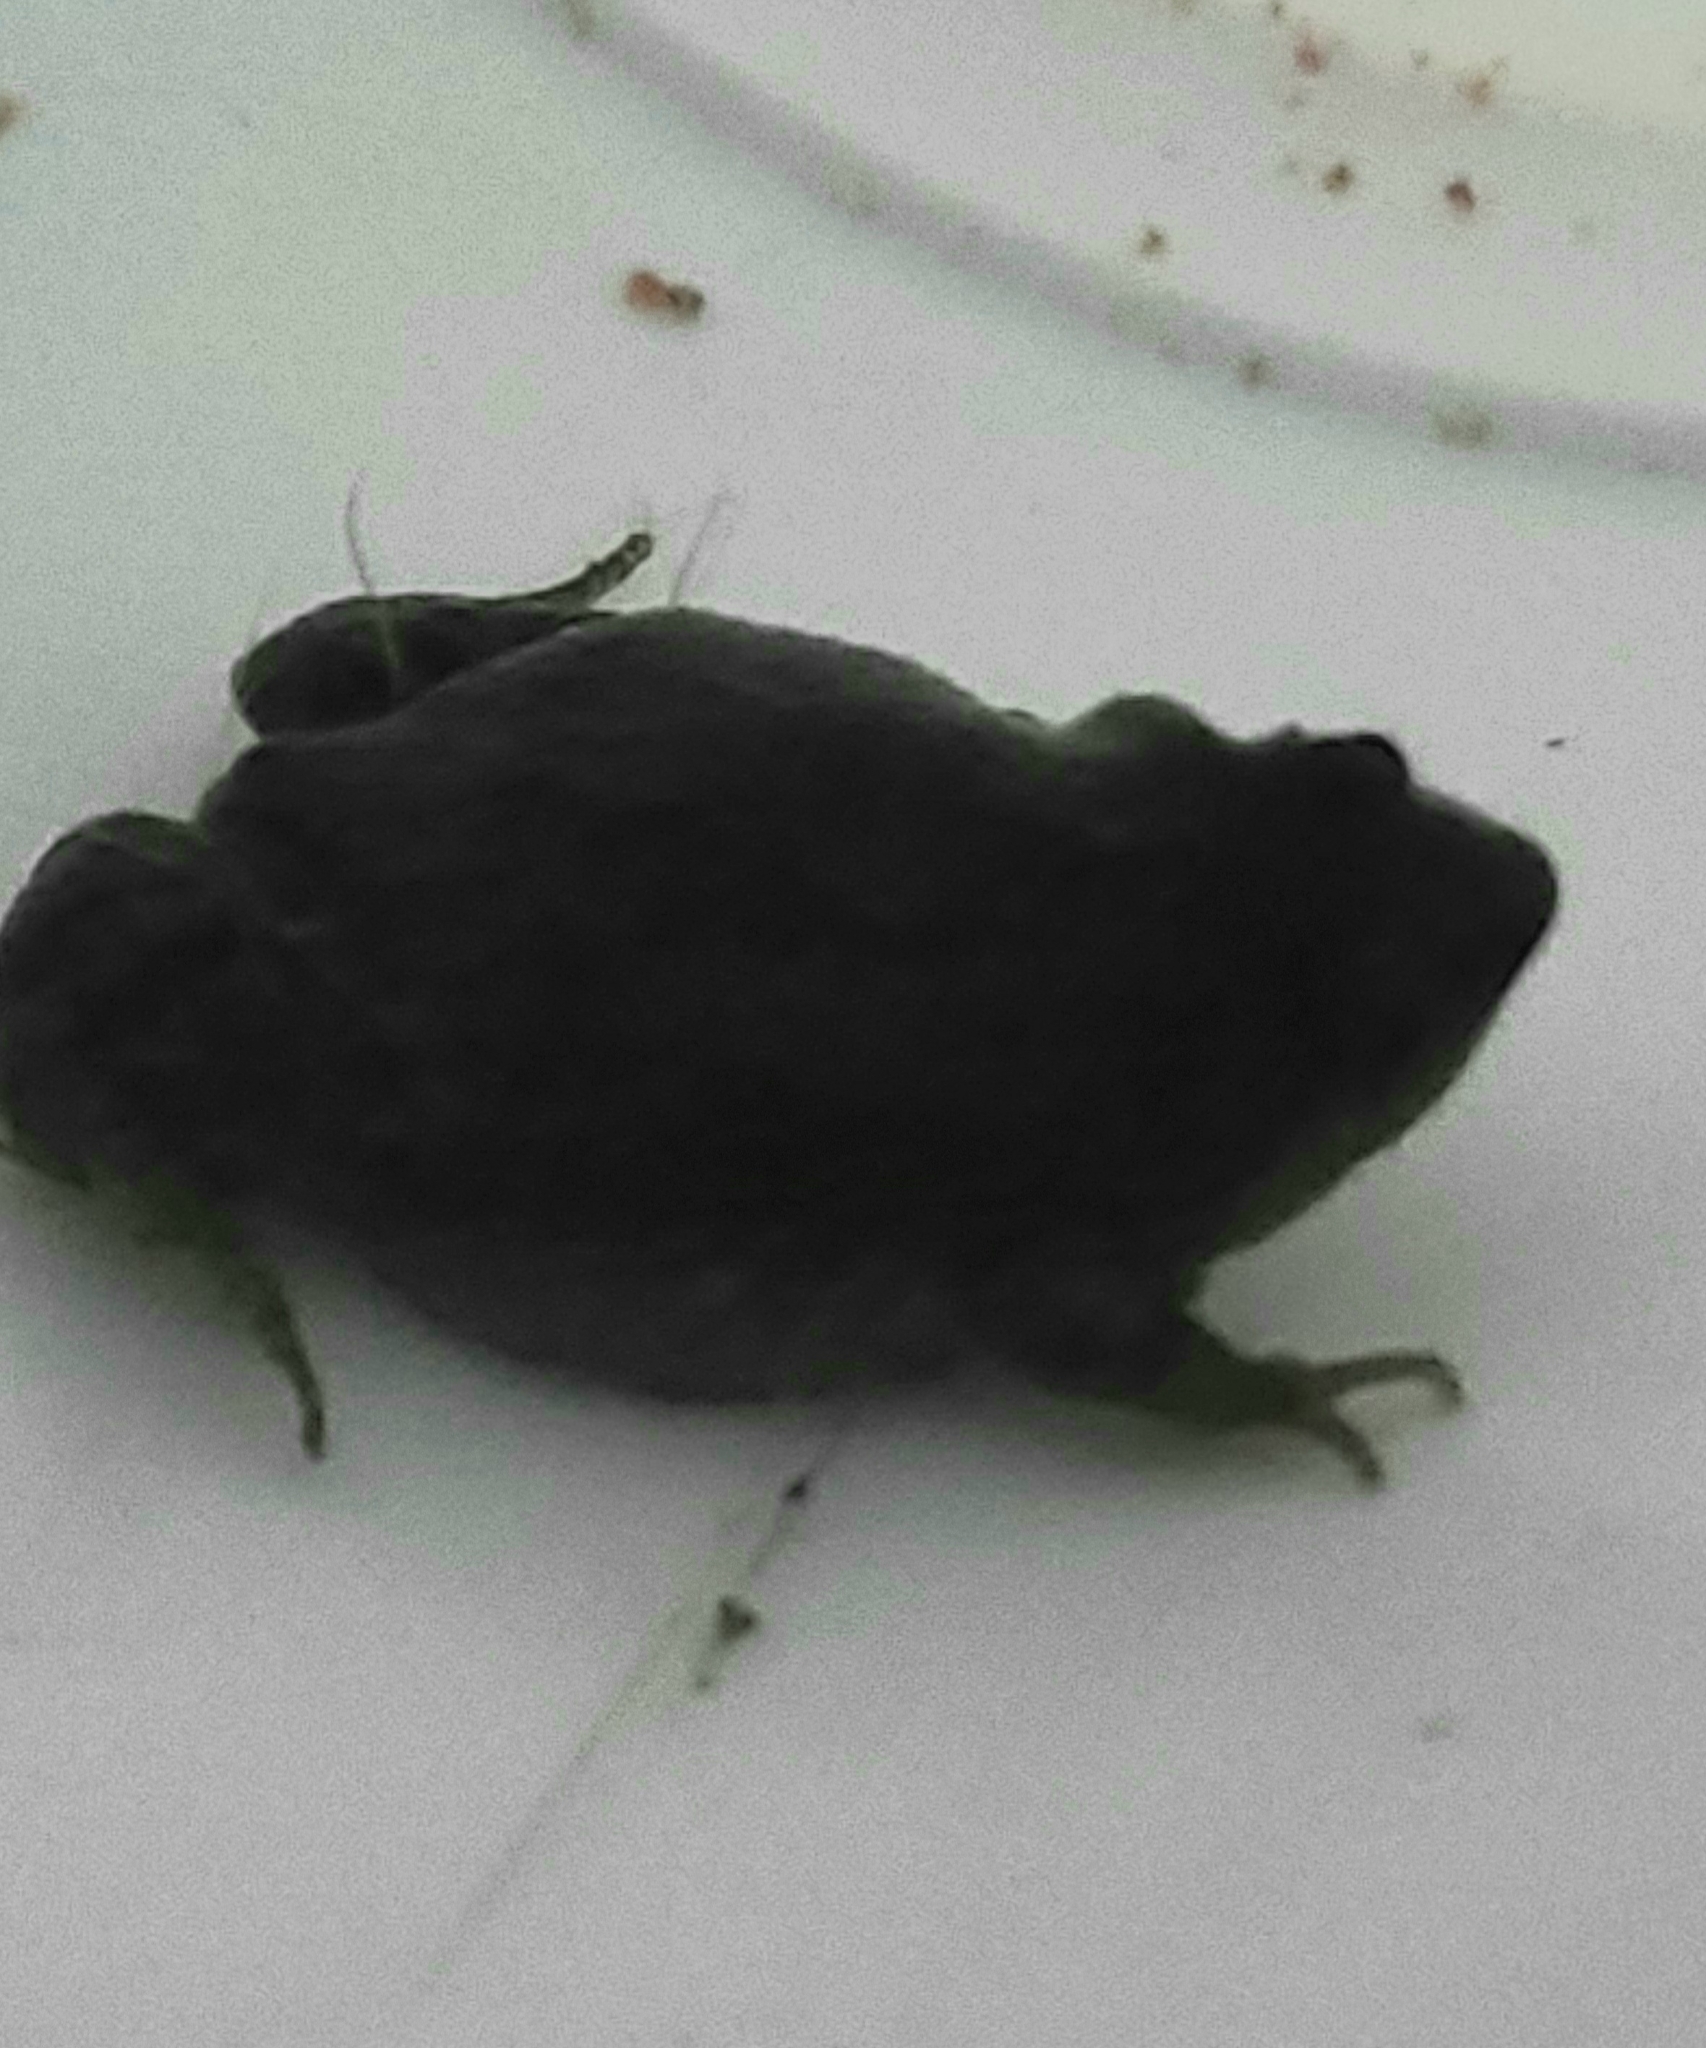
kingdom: Animalia
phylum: Chordata
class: Amphibia
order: Anura
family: Microhylidae
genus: Gastrophryne
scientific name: Gastrophryne carolinensis
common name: Eastern narrowmouth toad
